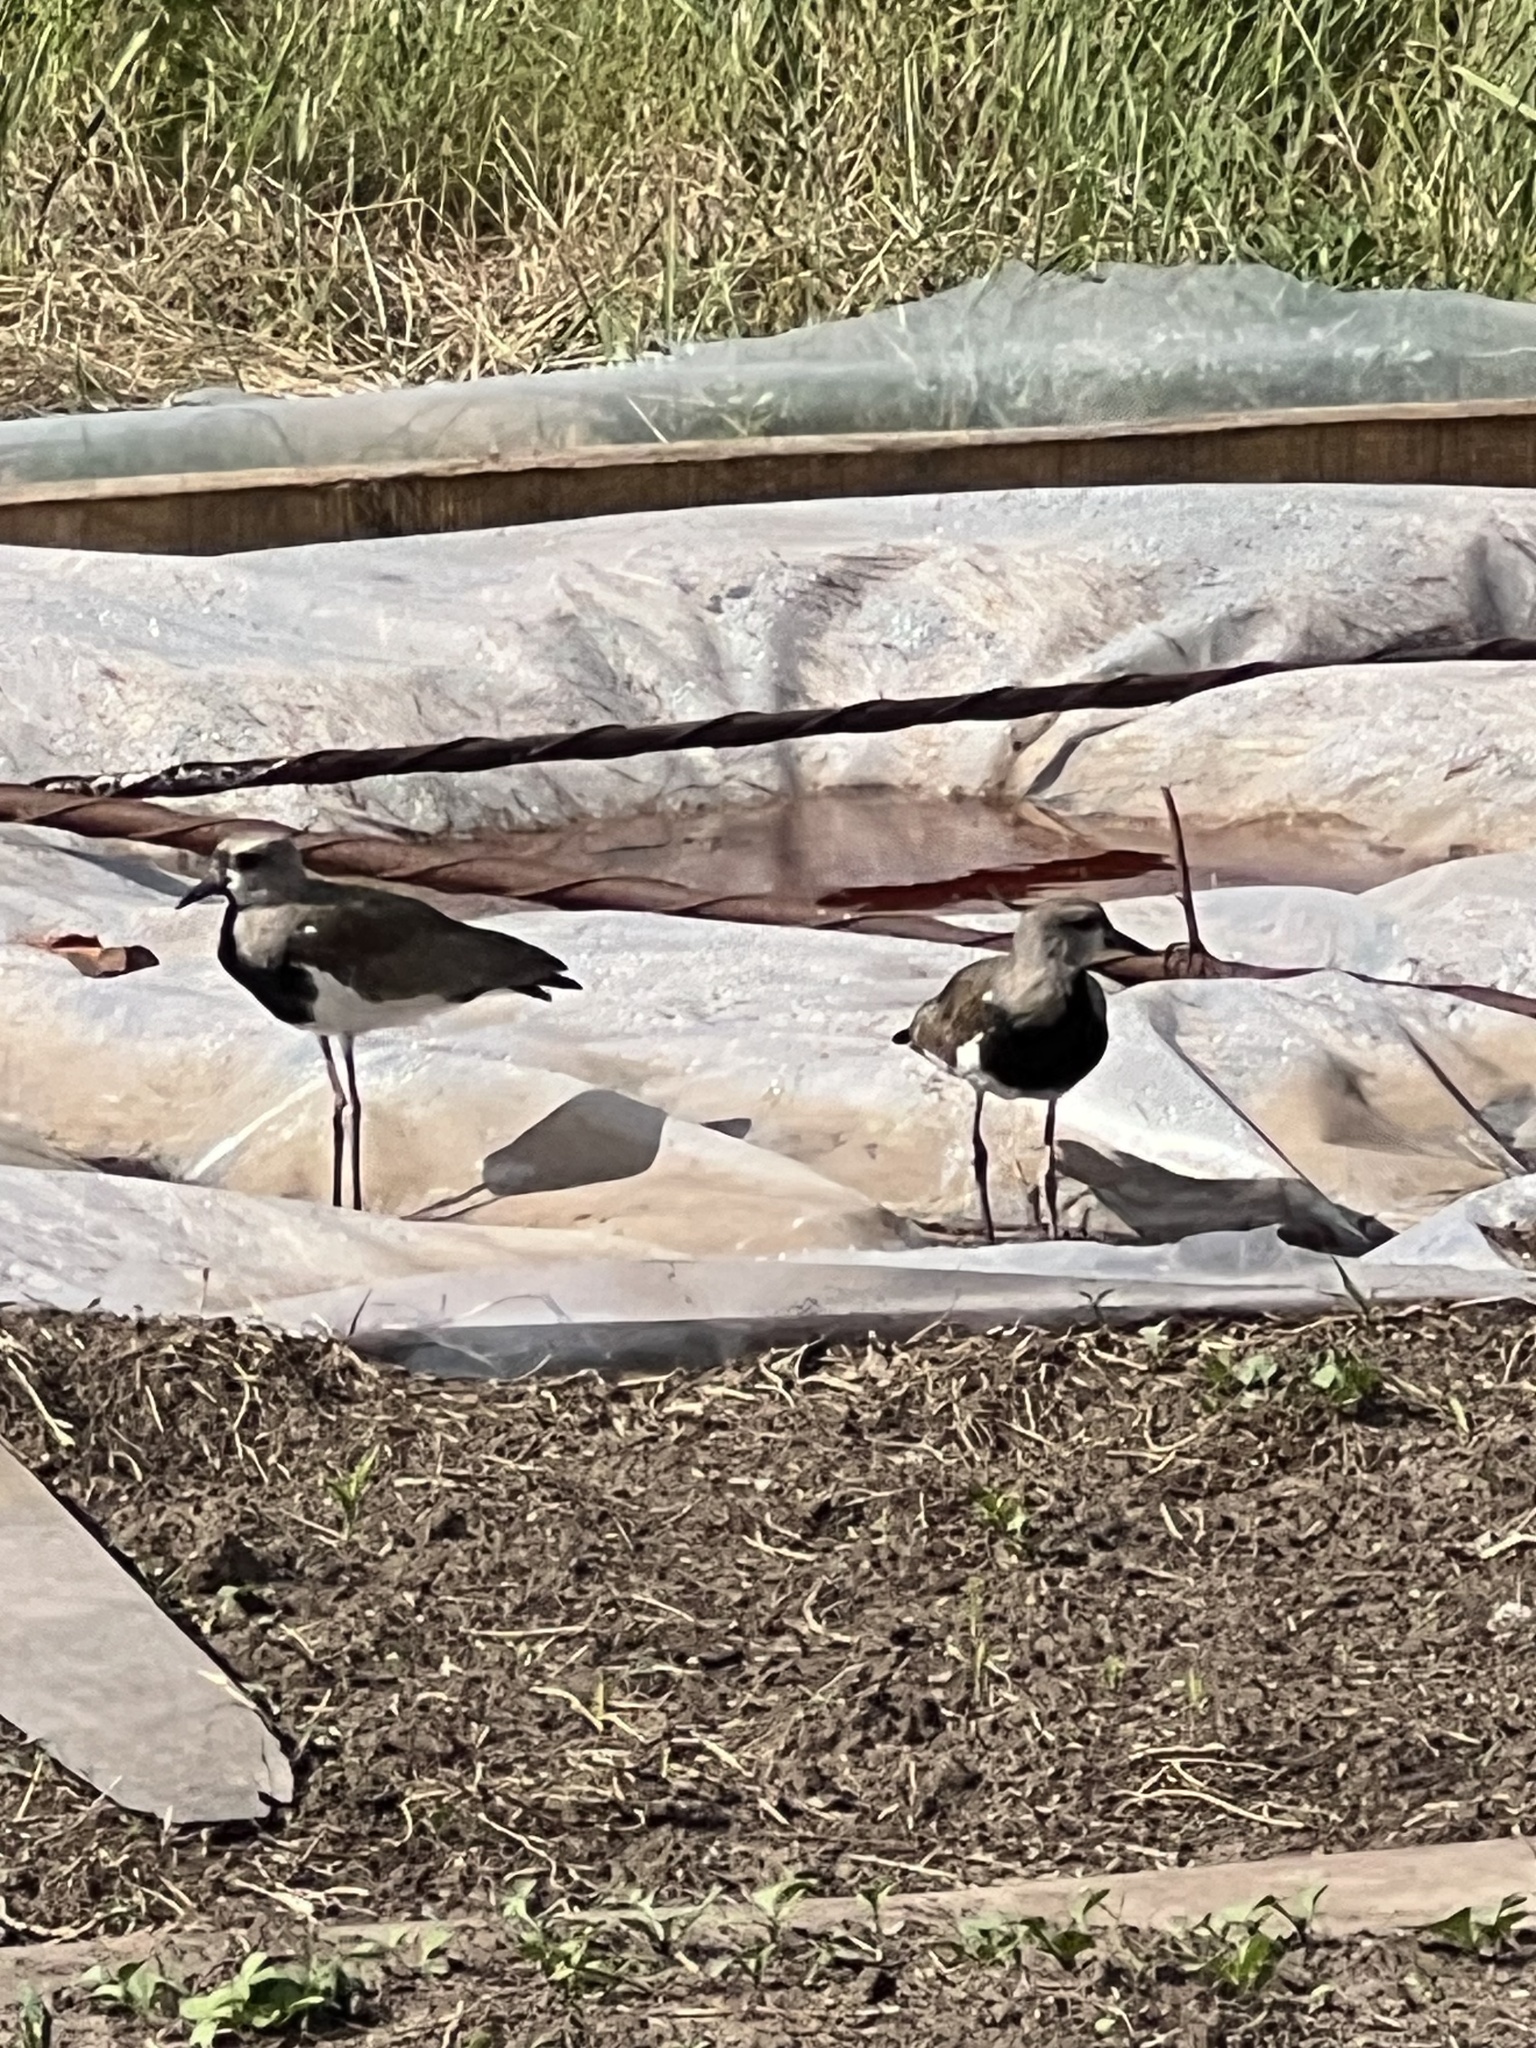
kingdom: Animalia
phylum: Chordata
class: Aves
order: Charadriiformes
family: Charadriidae
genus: Vanellus
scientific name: Vanellus chilensis
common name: Southern lapwing
